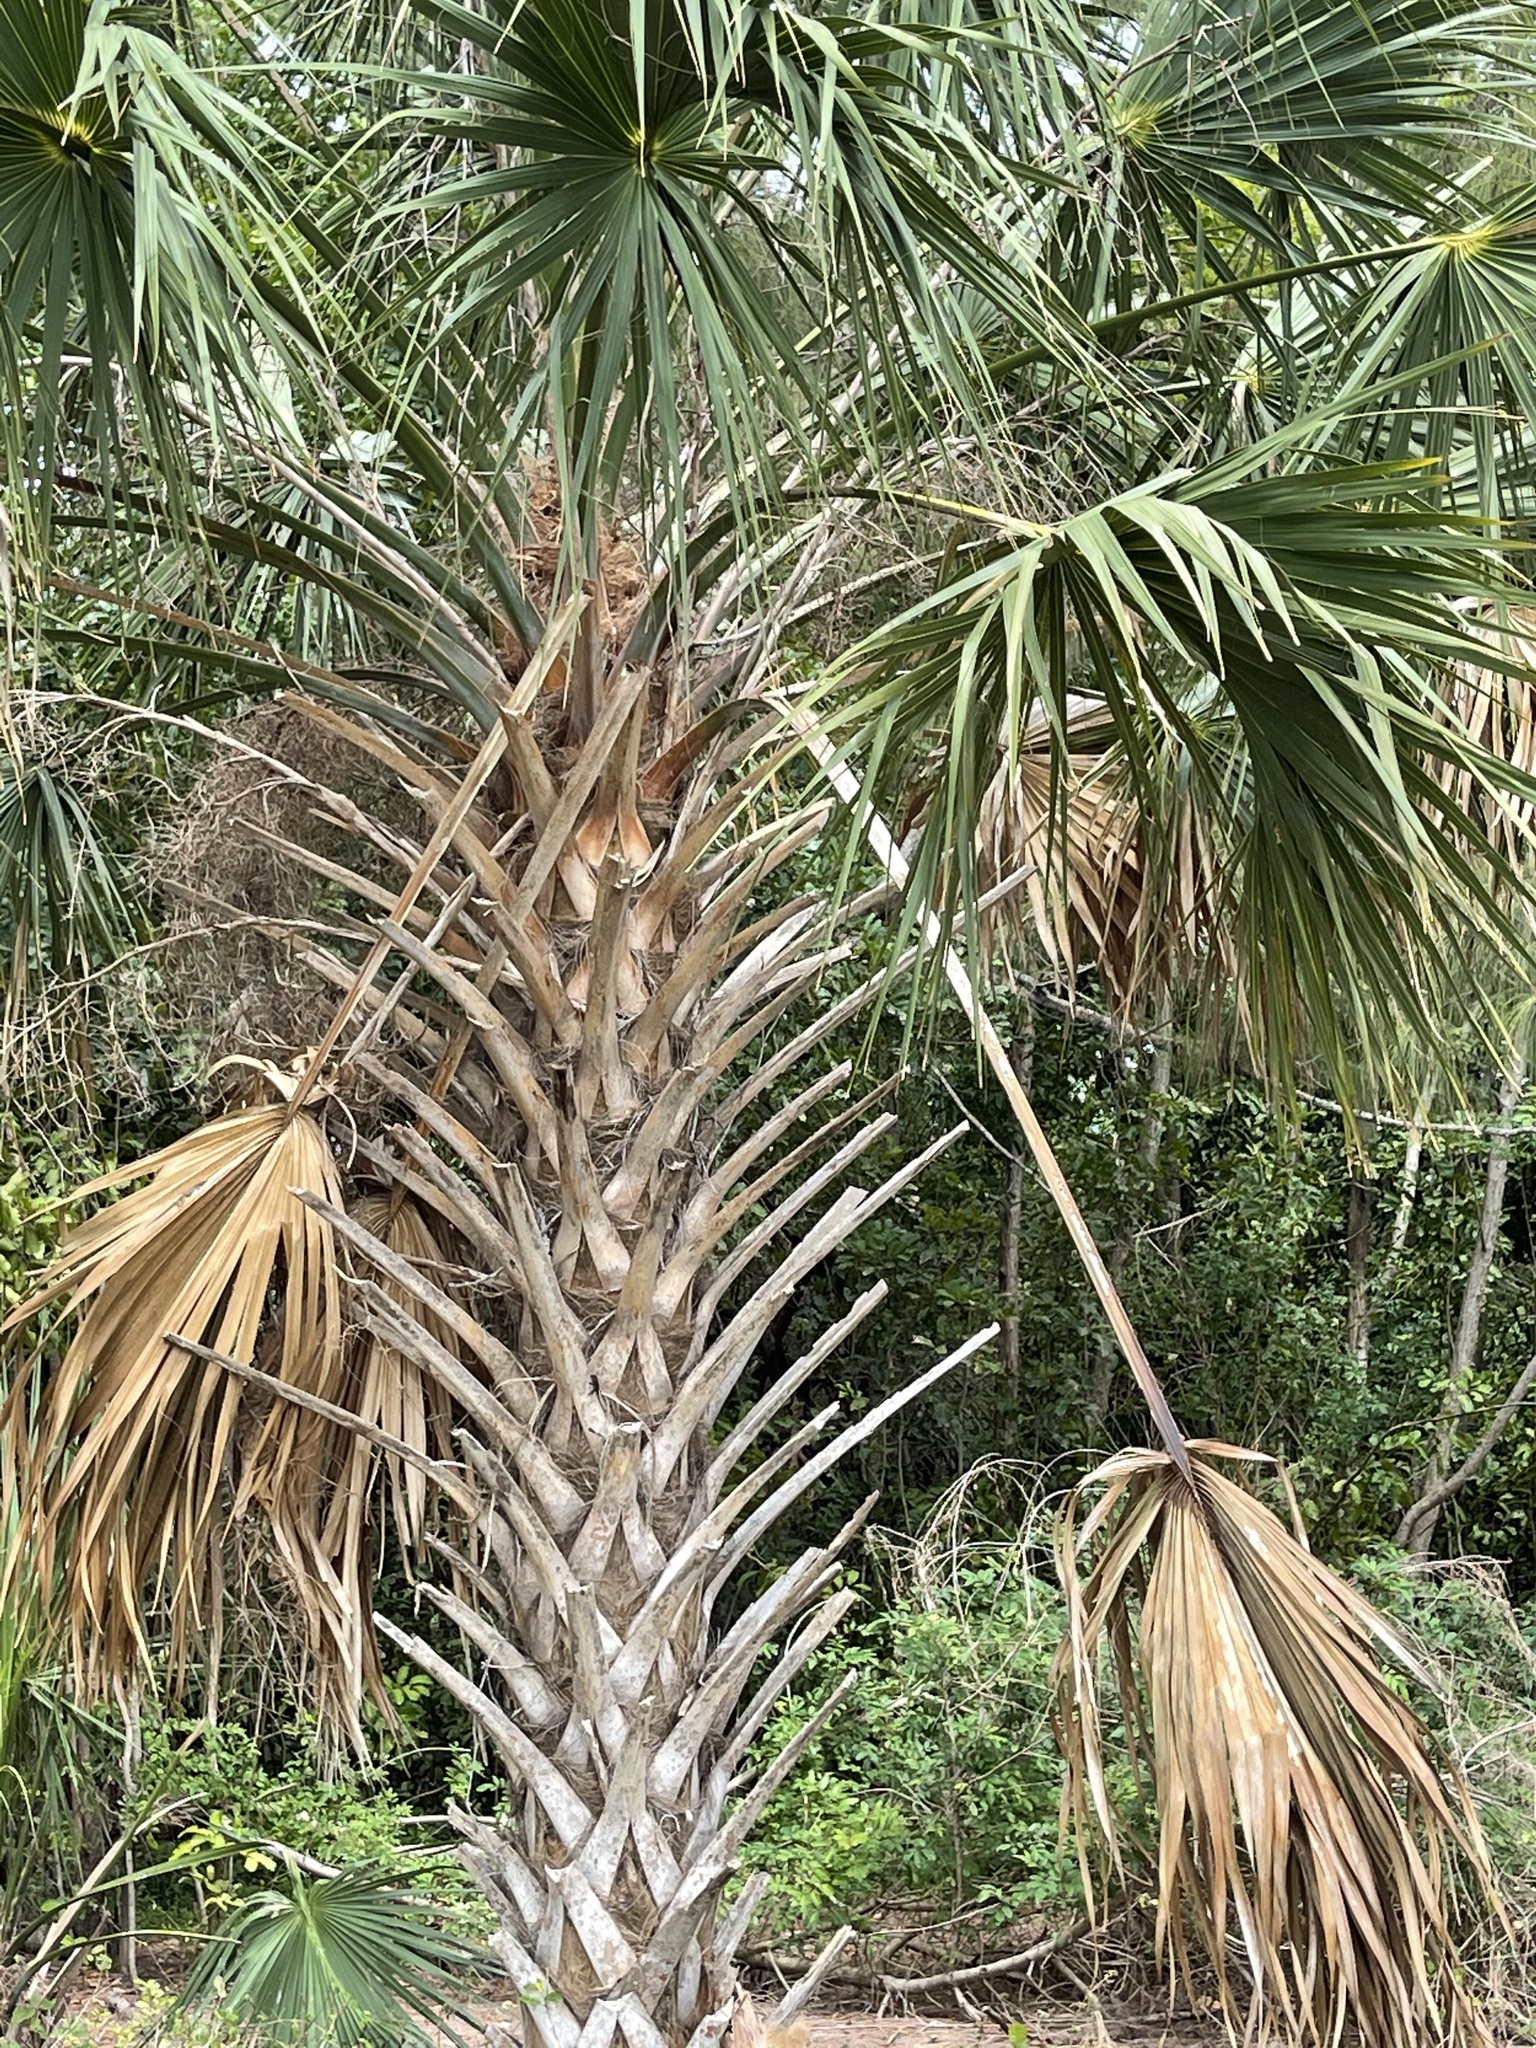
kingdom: Plantae
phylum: Tracheophyta
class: Liliopsida
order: Arecales
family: Arecaceae
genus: Sabal
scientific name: Sabal palmetto
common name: Blue palmetto
